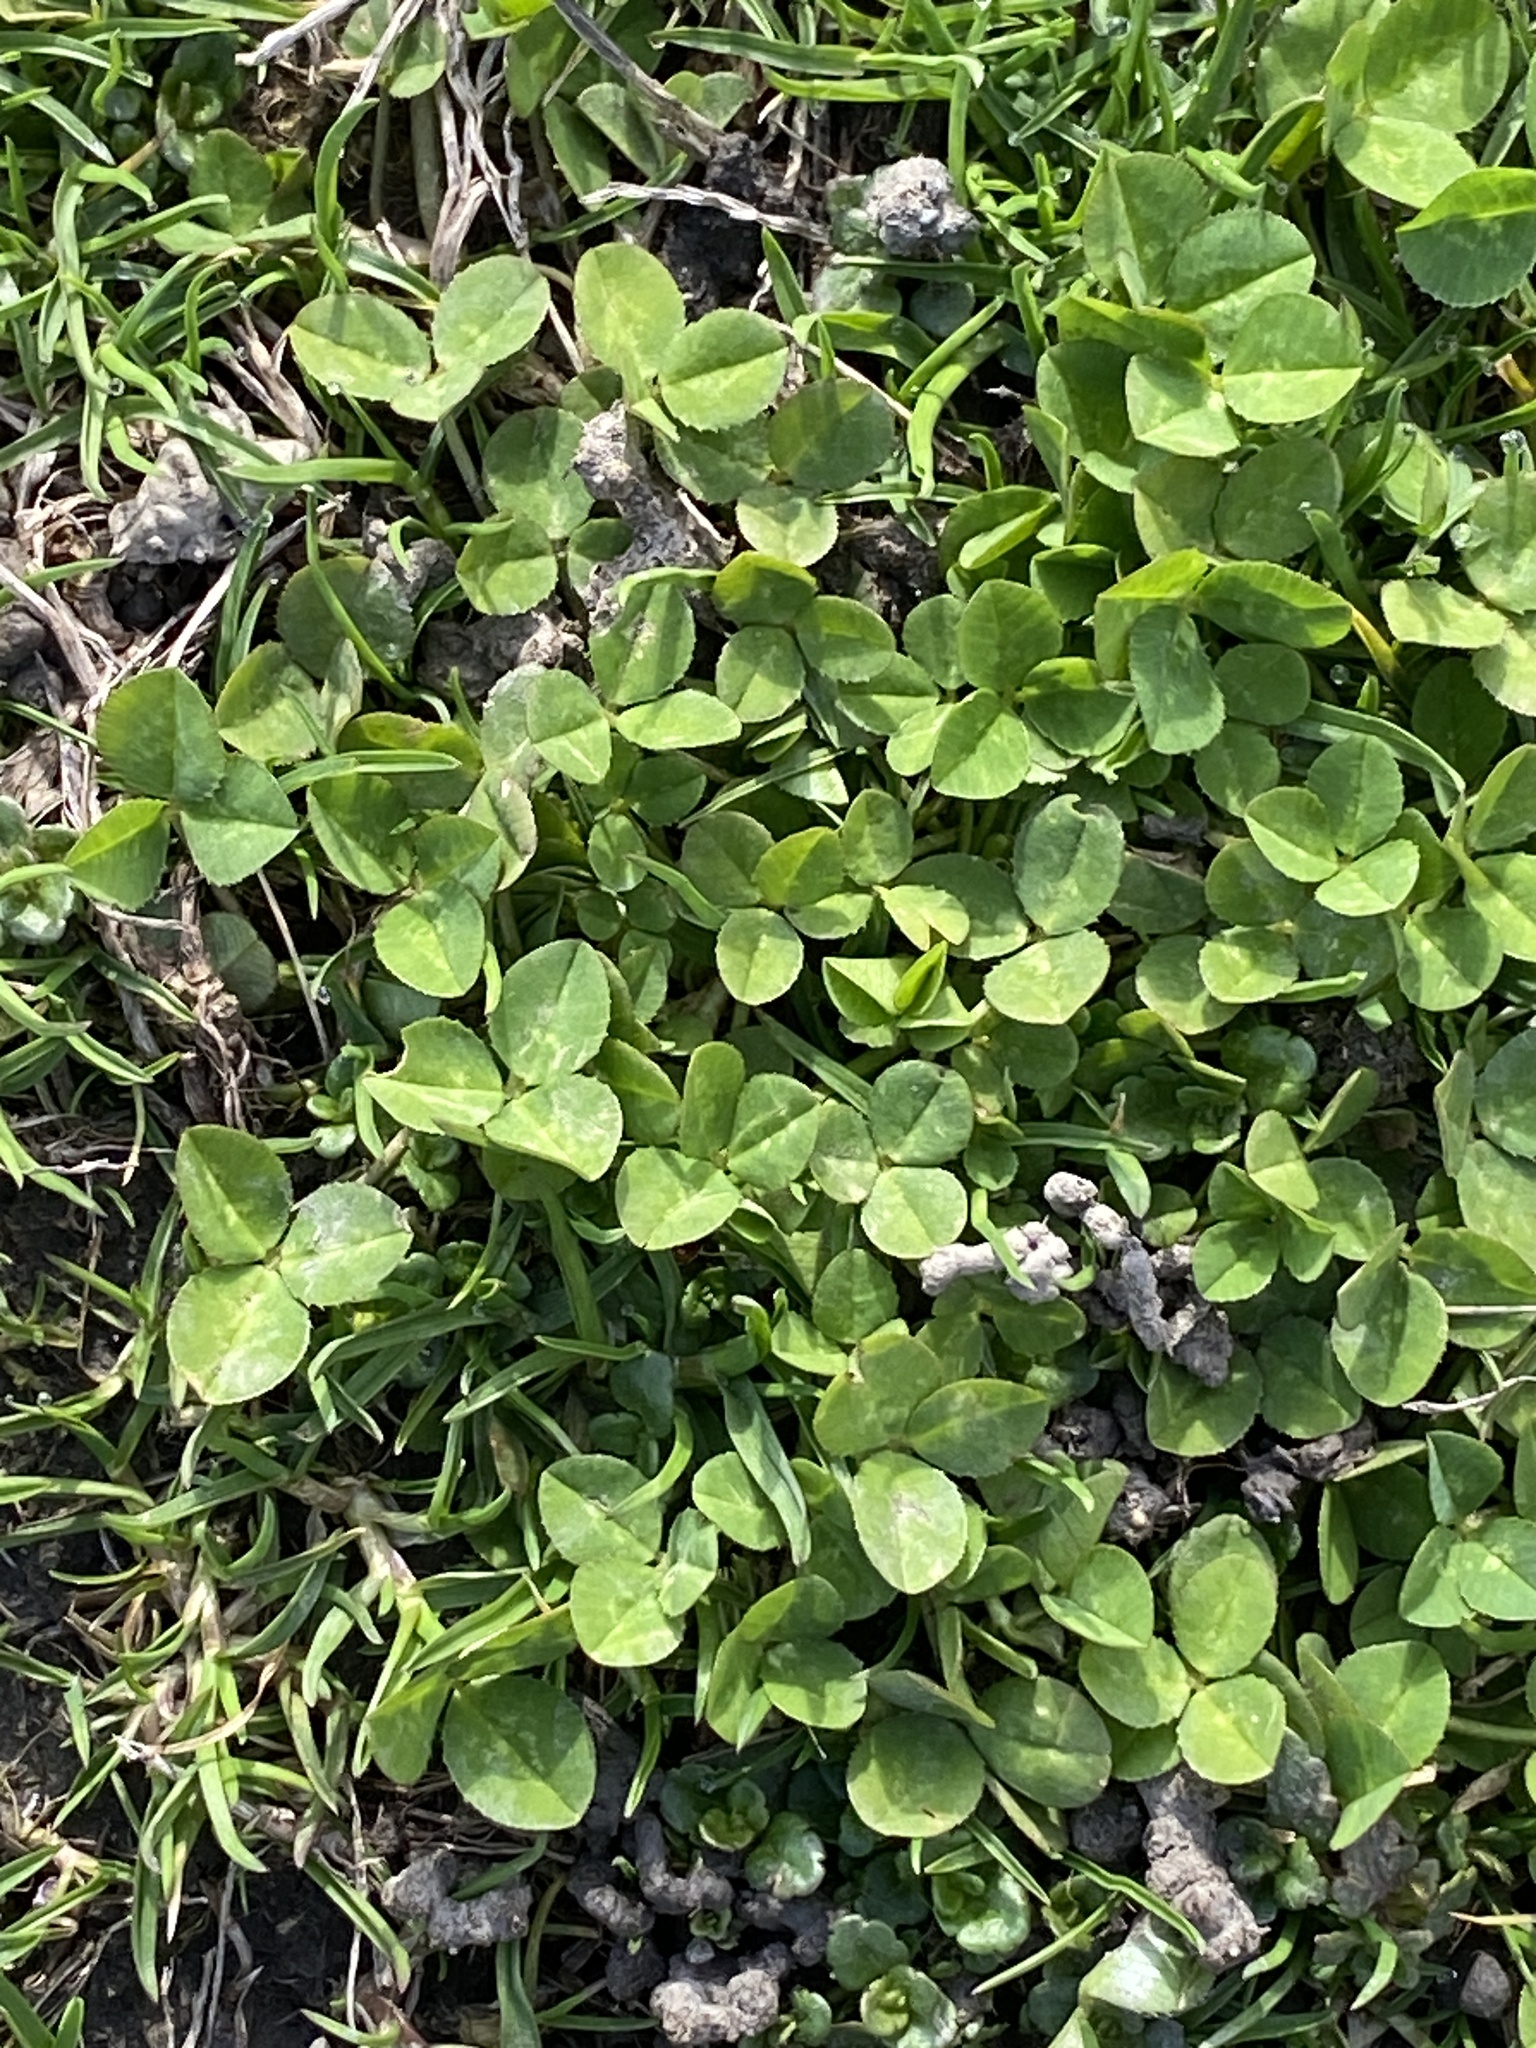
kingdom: Plantae
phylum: Tracheophyta
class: Magnoliopsida
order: Fabales
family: Fabaceae
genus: Trifolium
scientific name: Trifolium repens
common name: White clover
